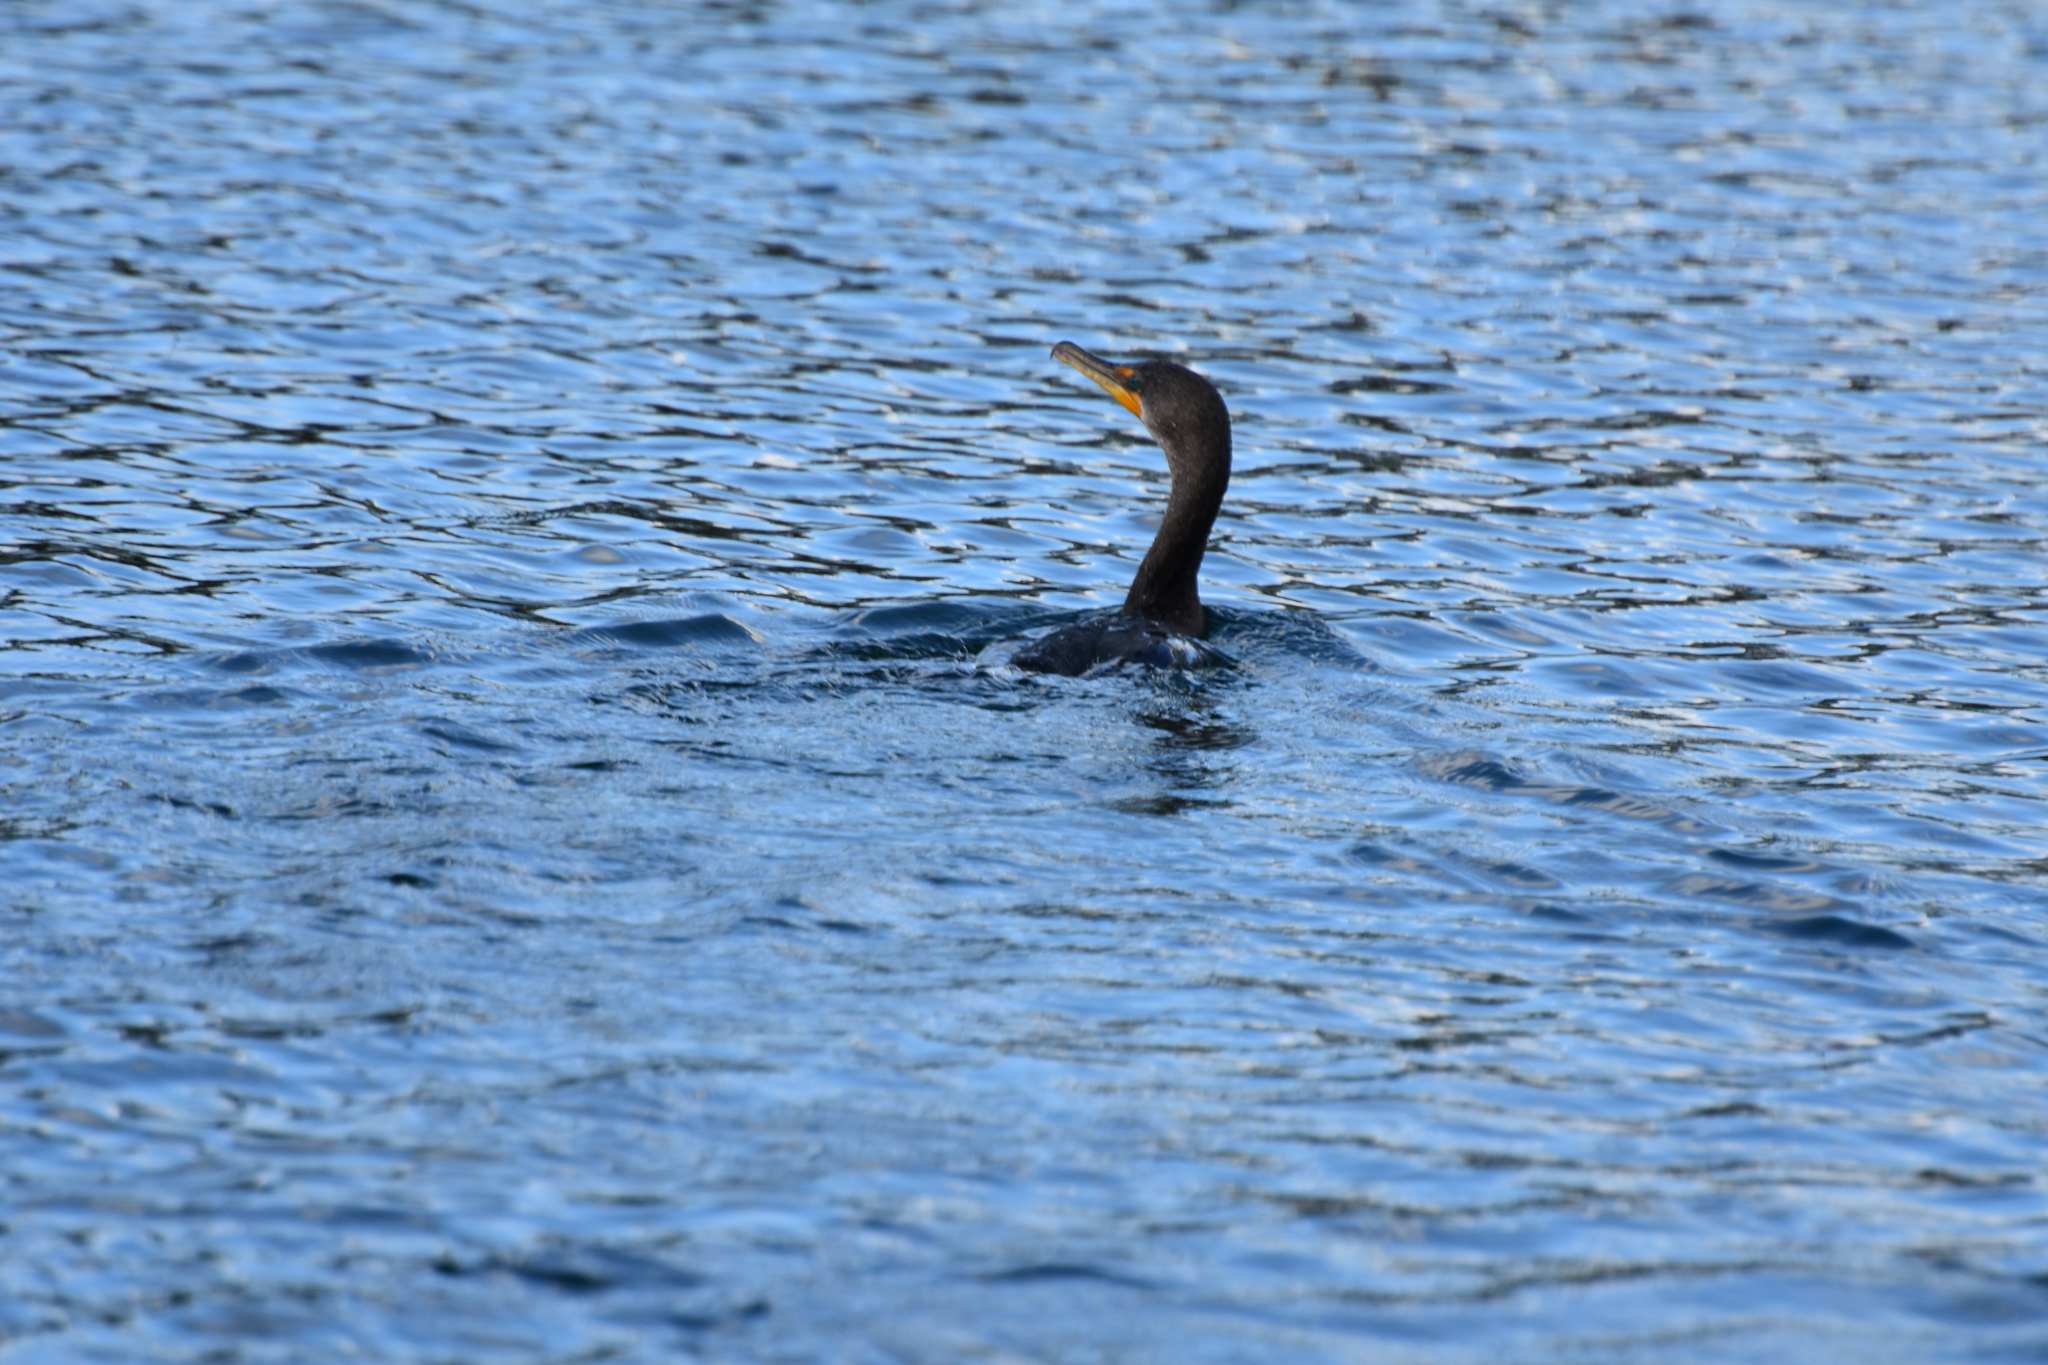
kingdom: Animalia
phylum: Chordata
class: Aves
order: Suliformes
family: Phalacrocoracidae
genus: Phalacrocorax
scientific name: Phalacrocorax auritus
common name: Double-crested cormorant
